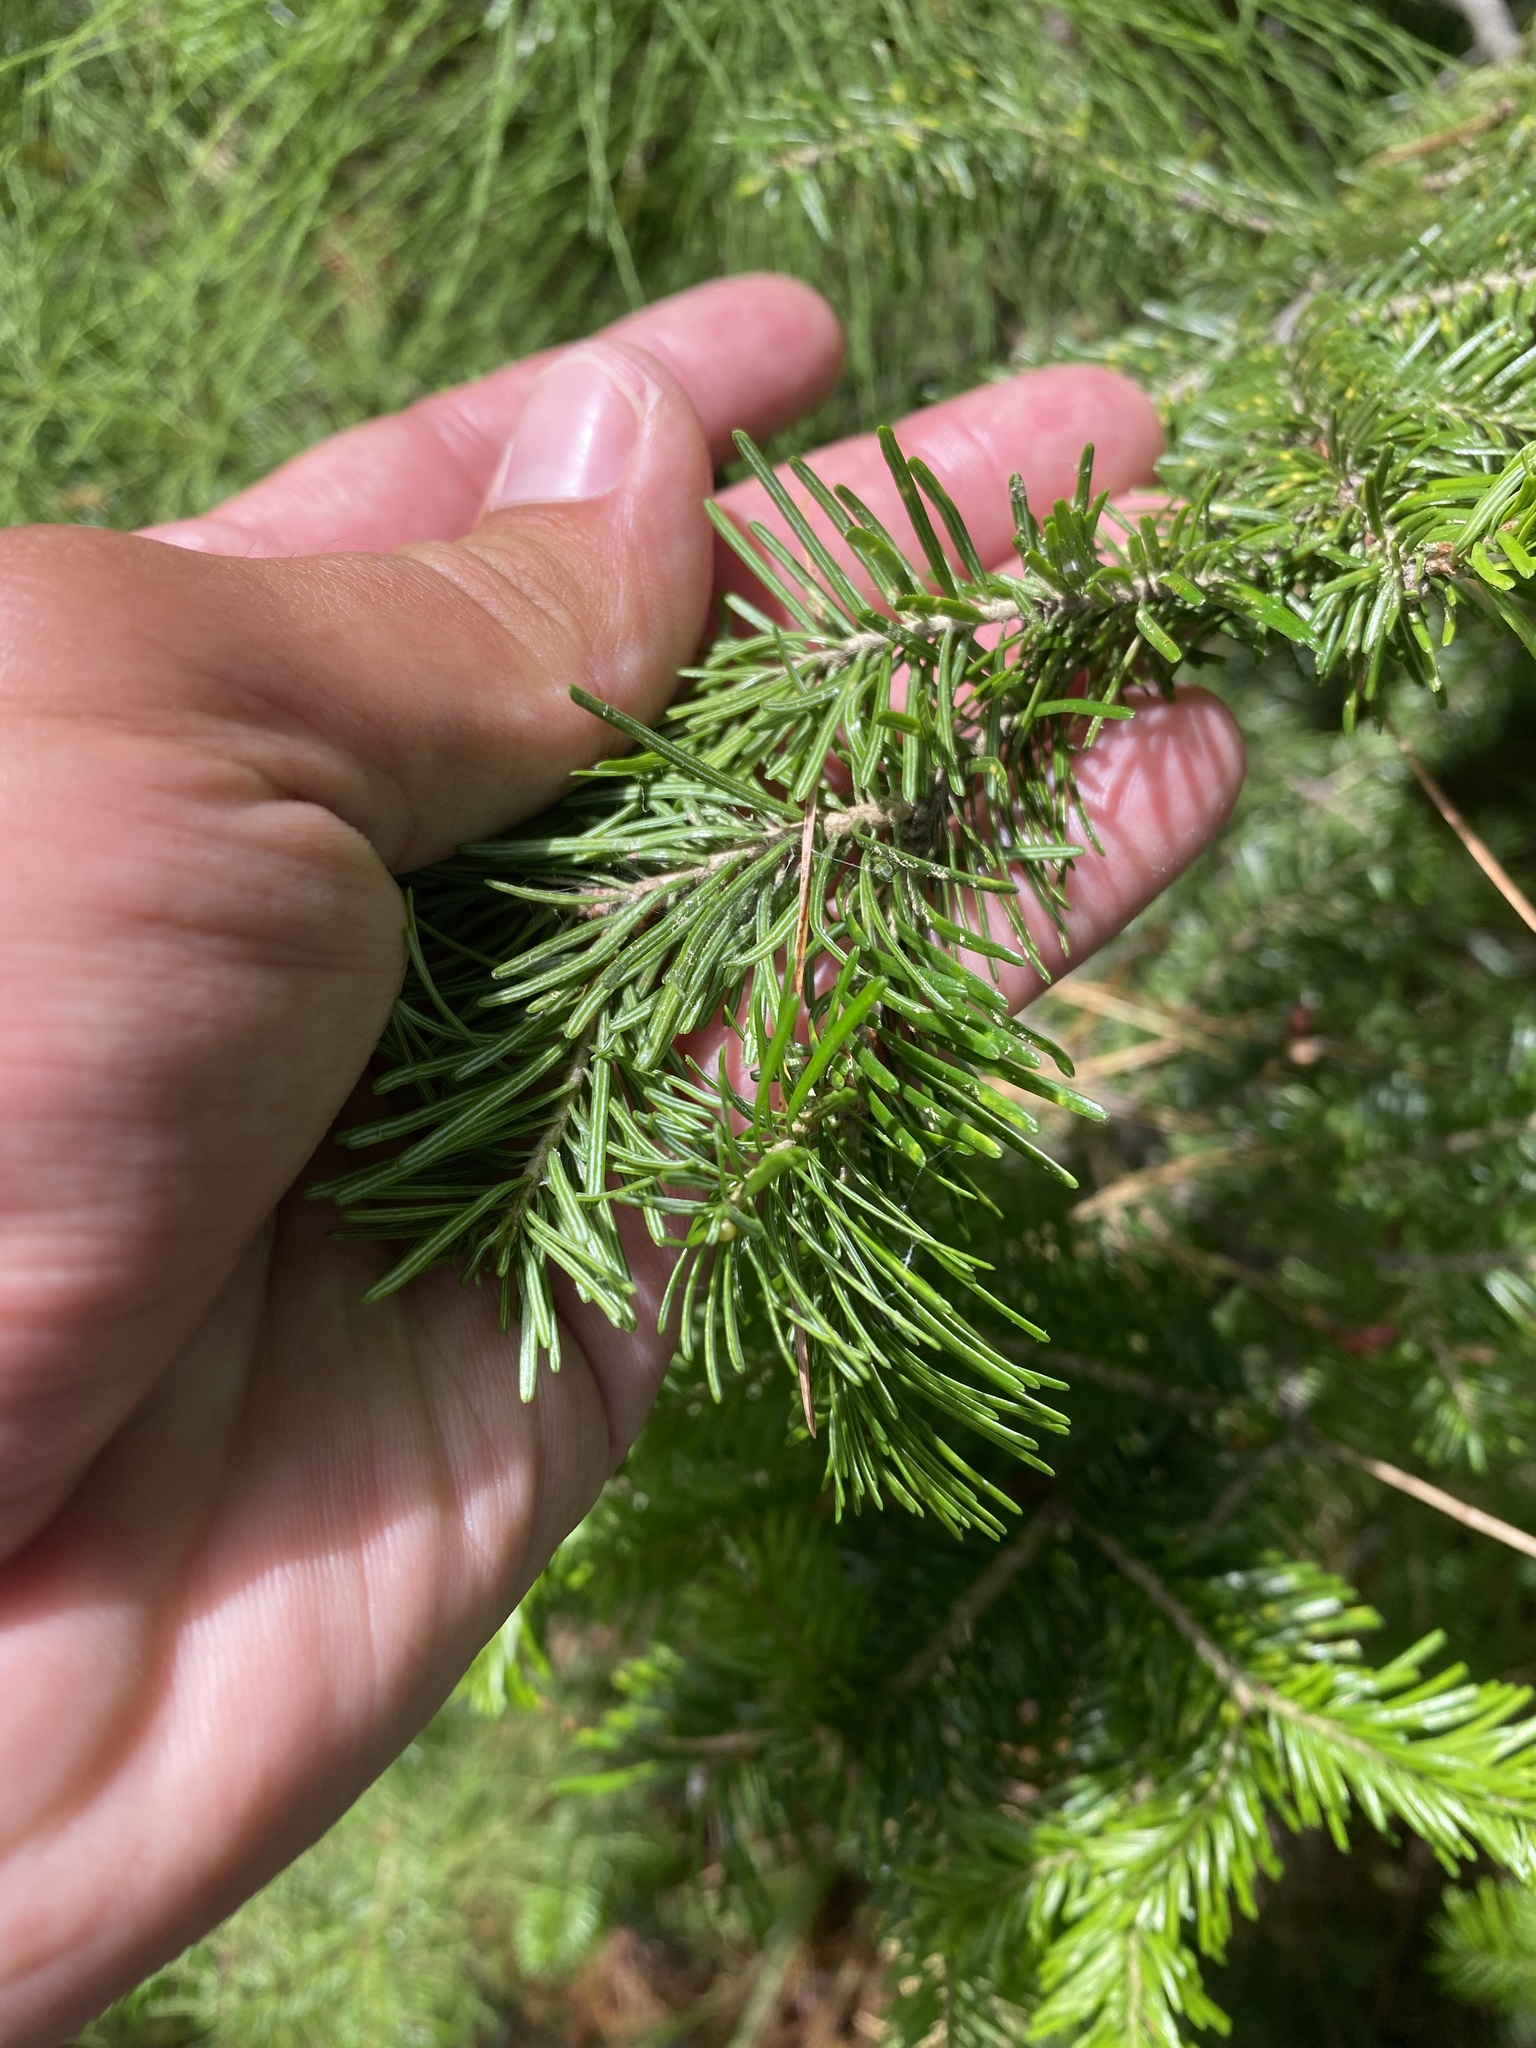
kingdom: Plantae
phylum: Tracheophyta
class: Pinopsida
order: Pinales
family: Pinaceae
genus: Abies
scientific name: Abies sibirica
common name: Siberian fir
